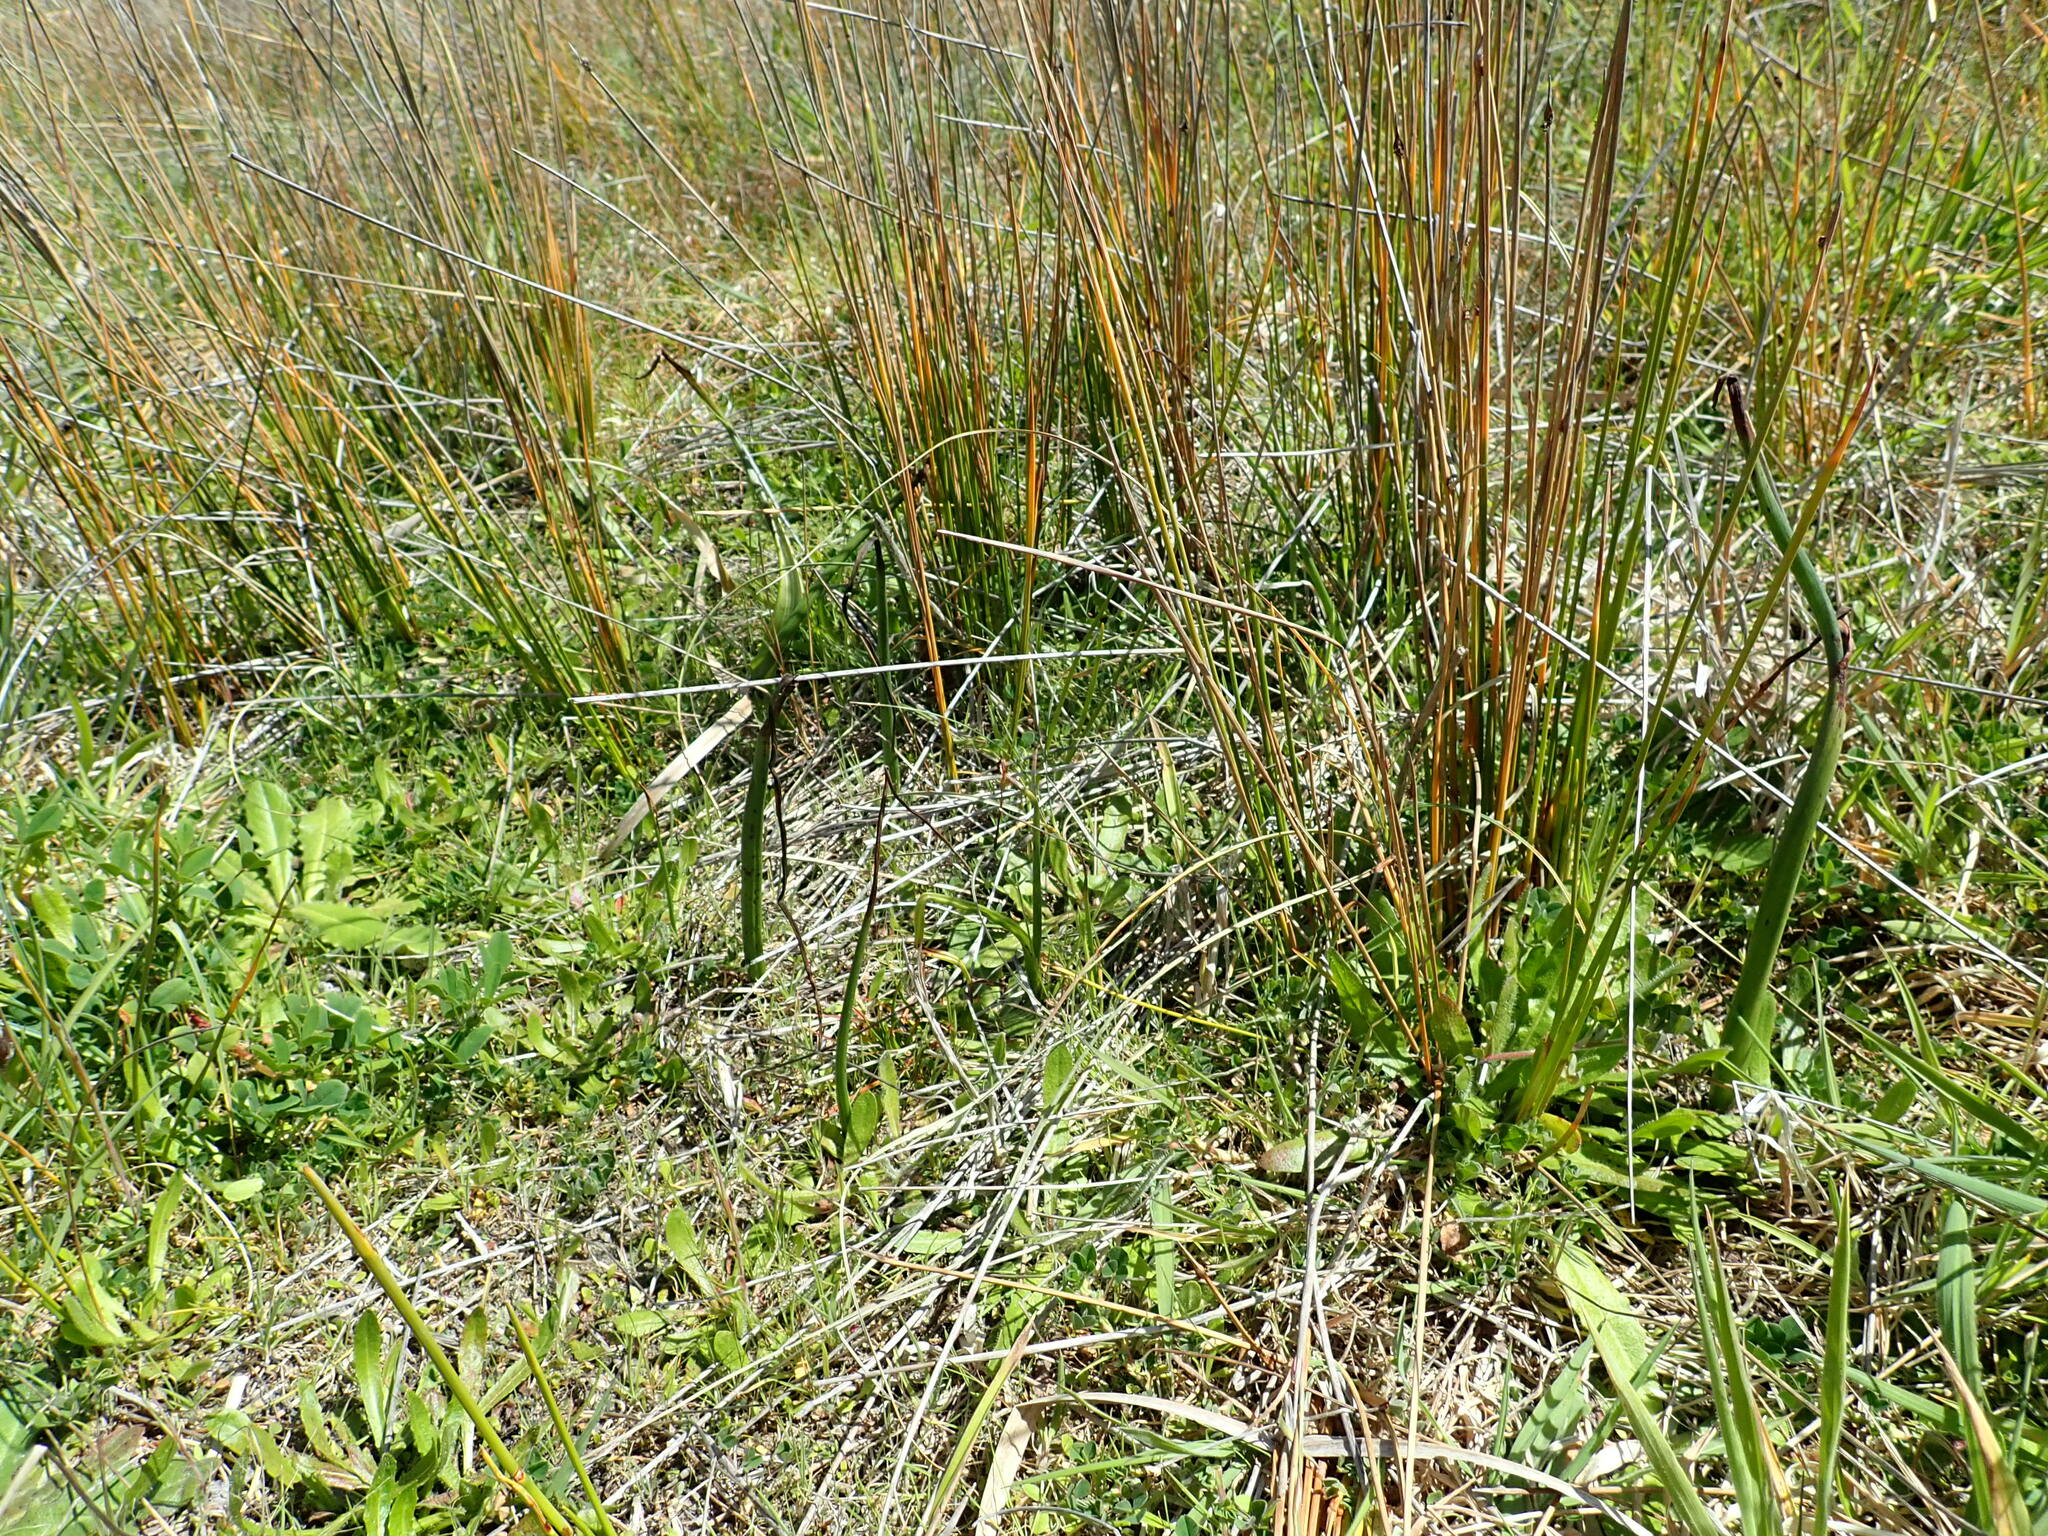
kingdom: Plantae
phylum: Tracheophyta
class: Liliopsida
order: Asparagales
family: Orchidaceae
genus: Microtis
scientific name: Microtis unifolia
